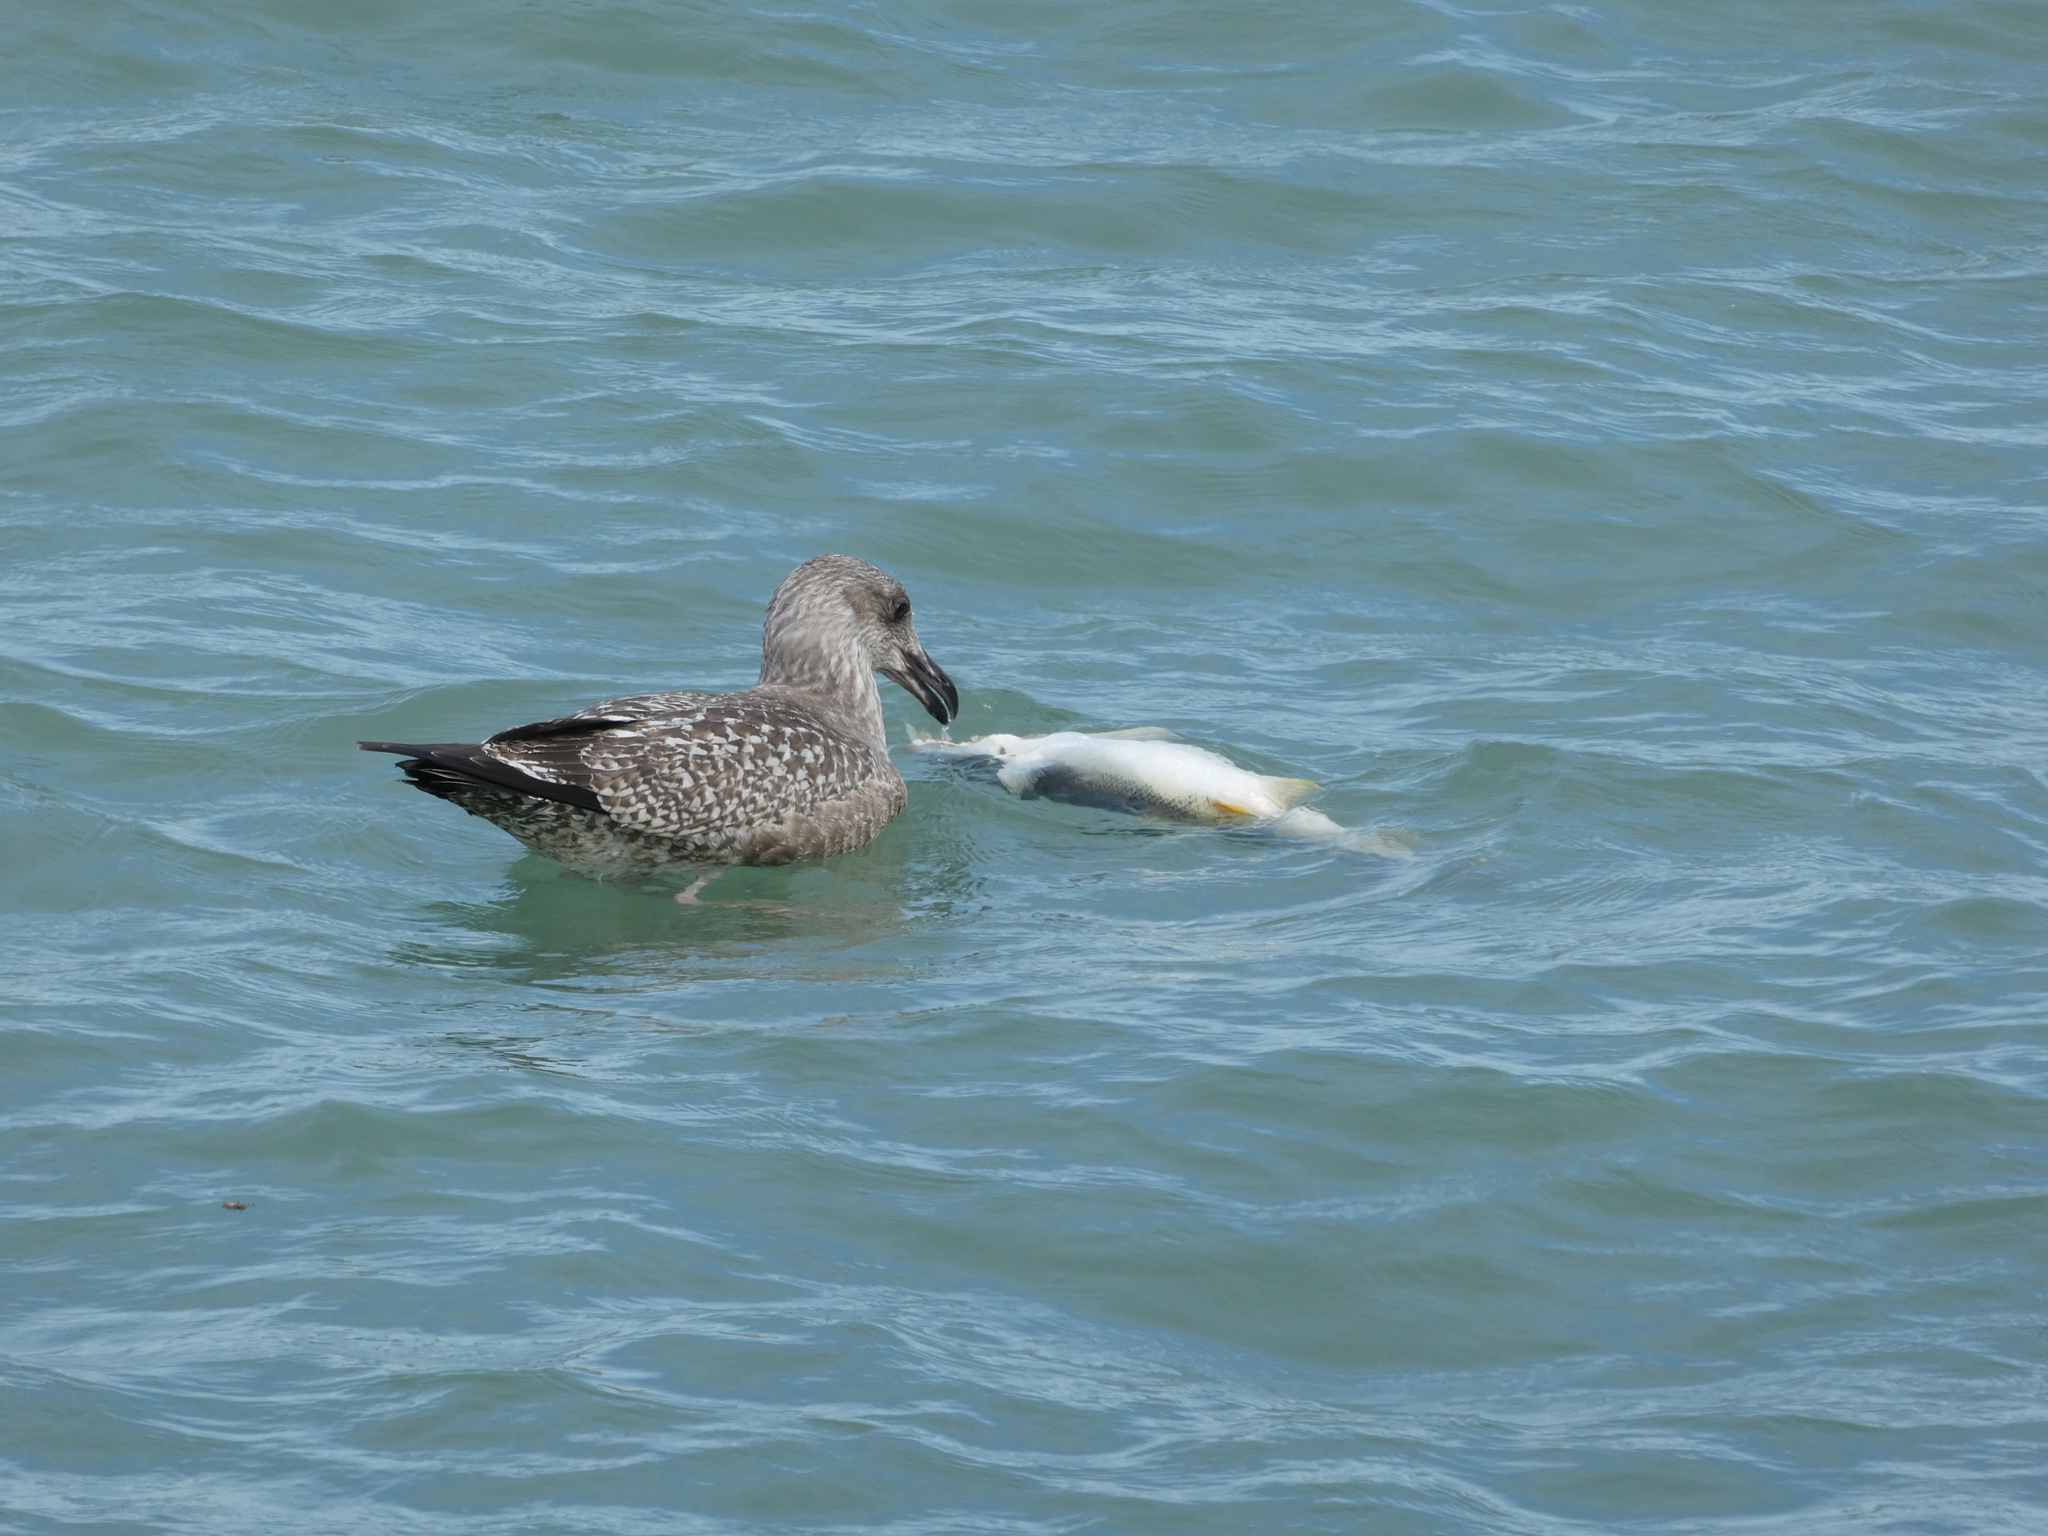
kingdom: Animalia
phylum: Chordata
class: Aves
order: Charadriiformes
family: Laridae
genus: Larus
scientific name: Larus argentatus
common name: Herring gull
